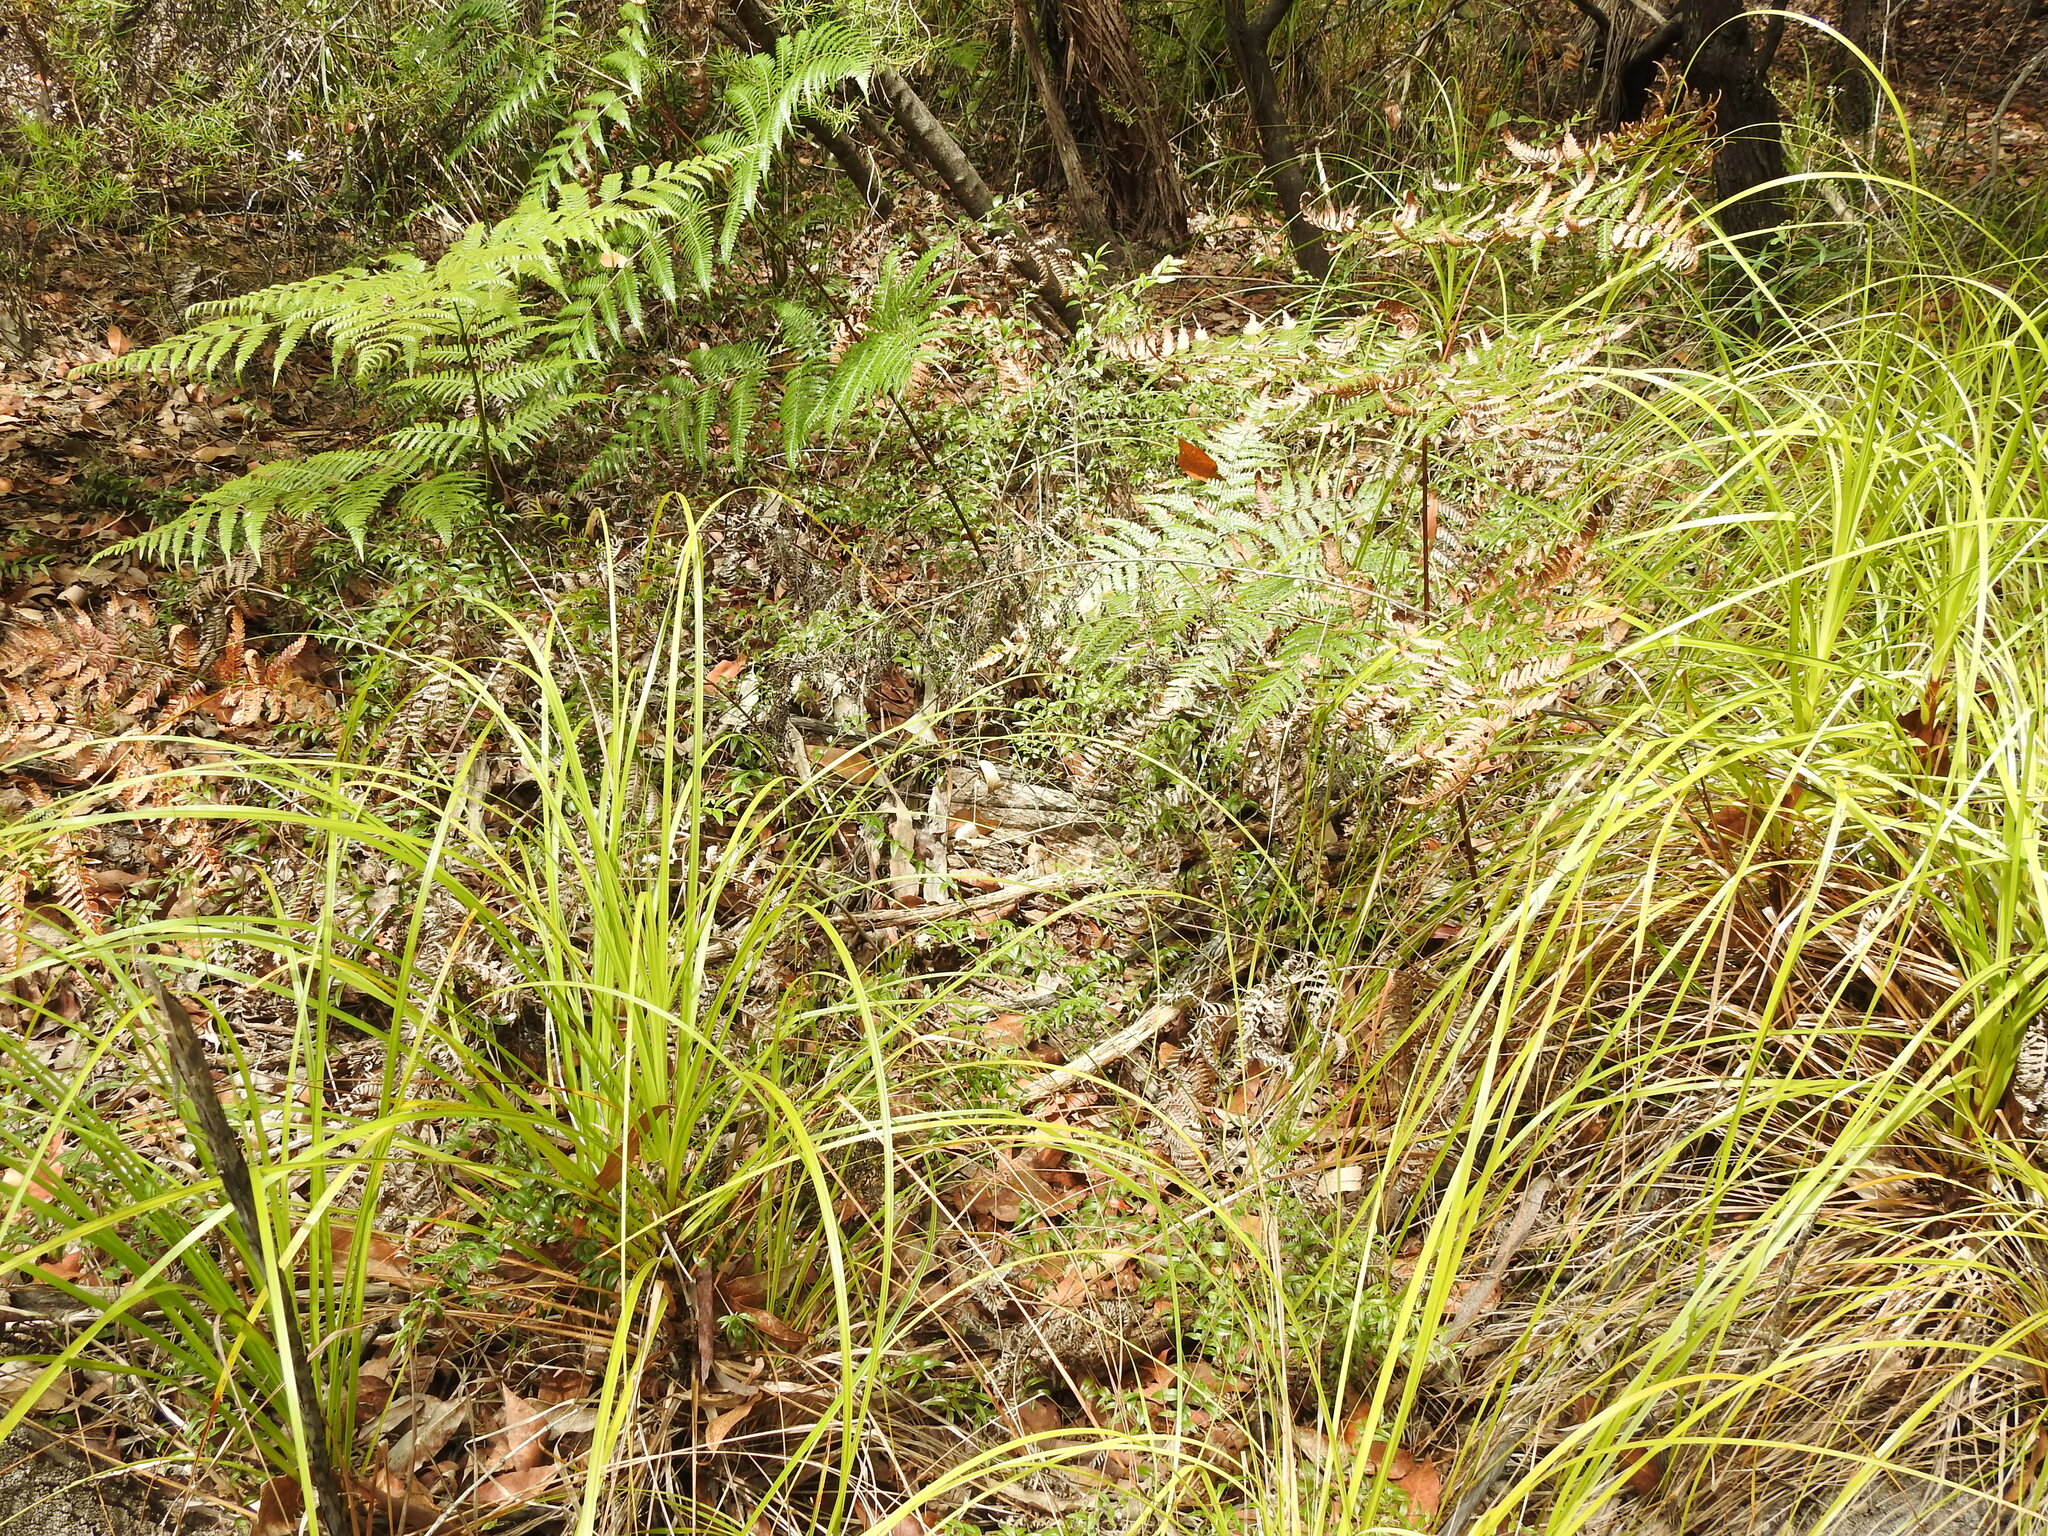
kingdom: Plantae
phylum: Tracheophyta
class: Magnoliopsida
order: Myrtales
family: Myrtaceae
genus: Austromyrtus
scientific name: Austromyrtus glabra
